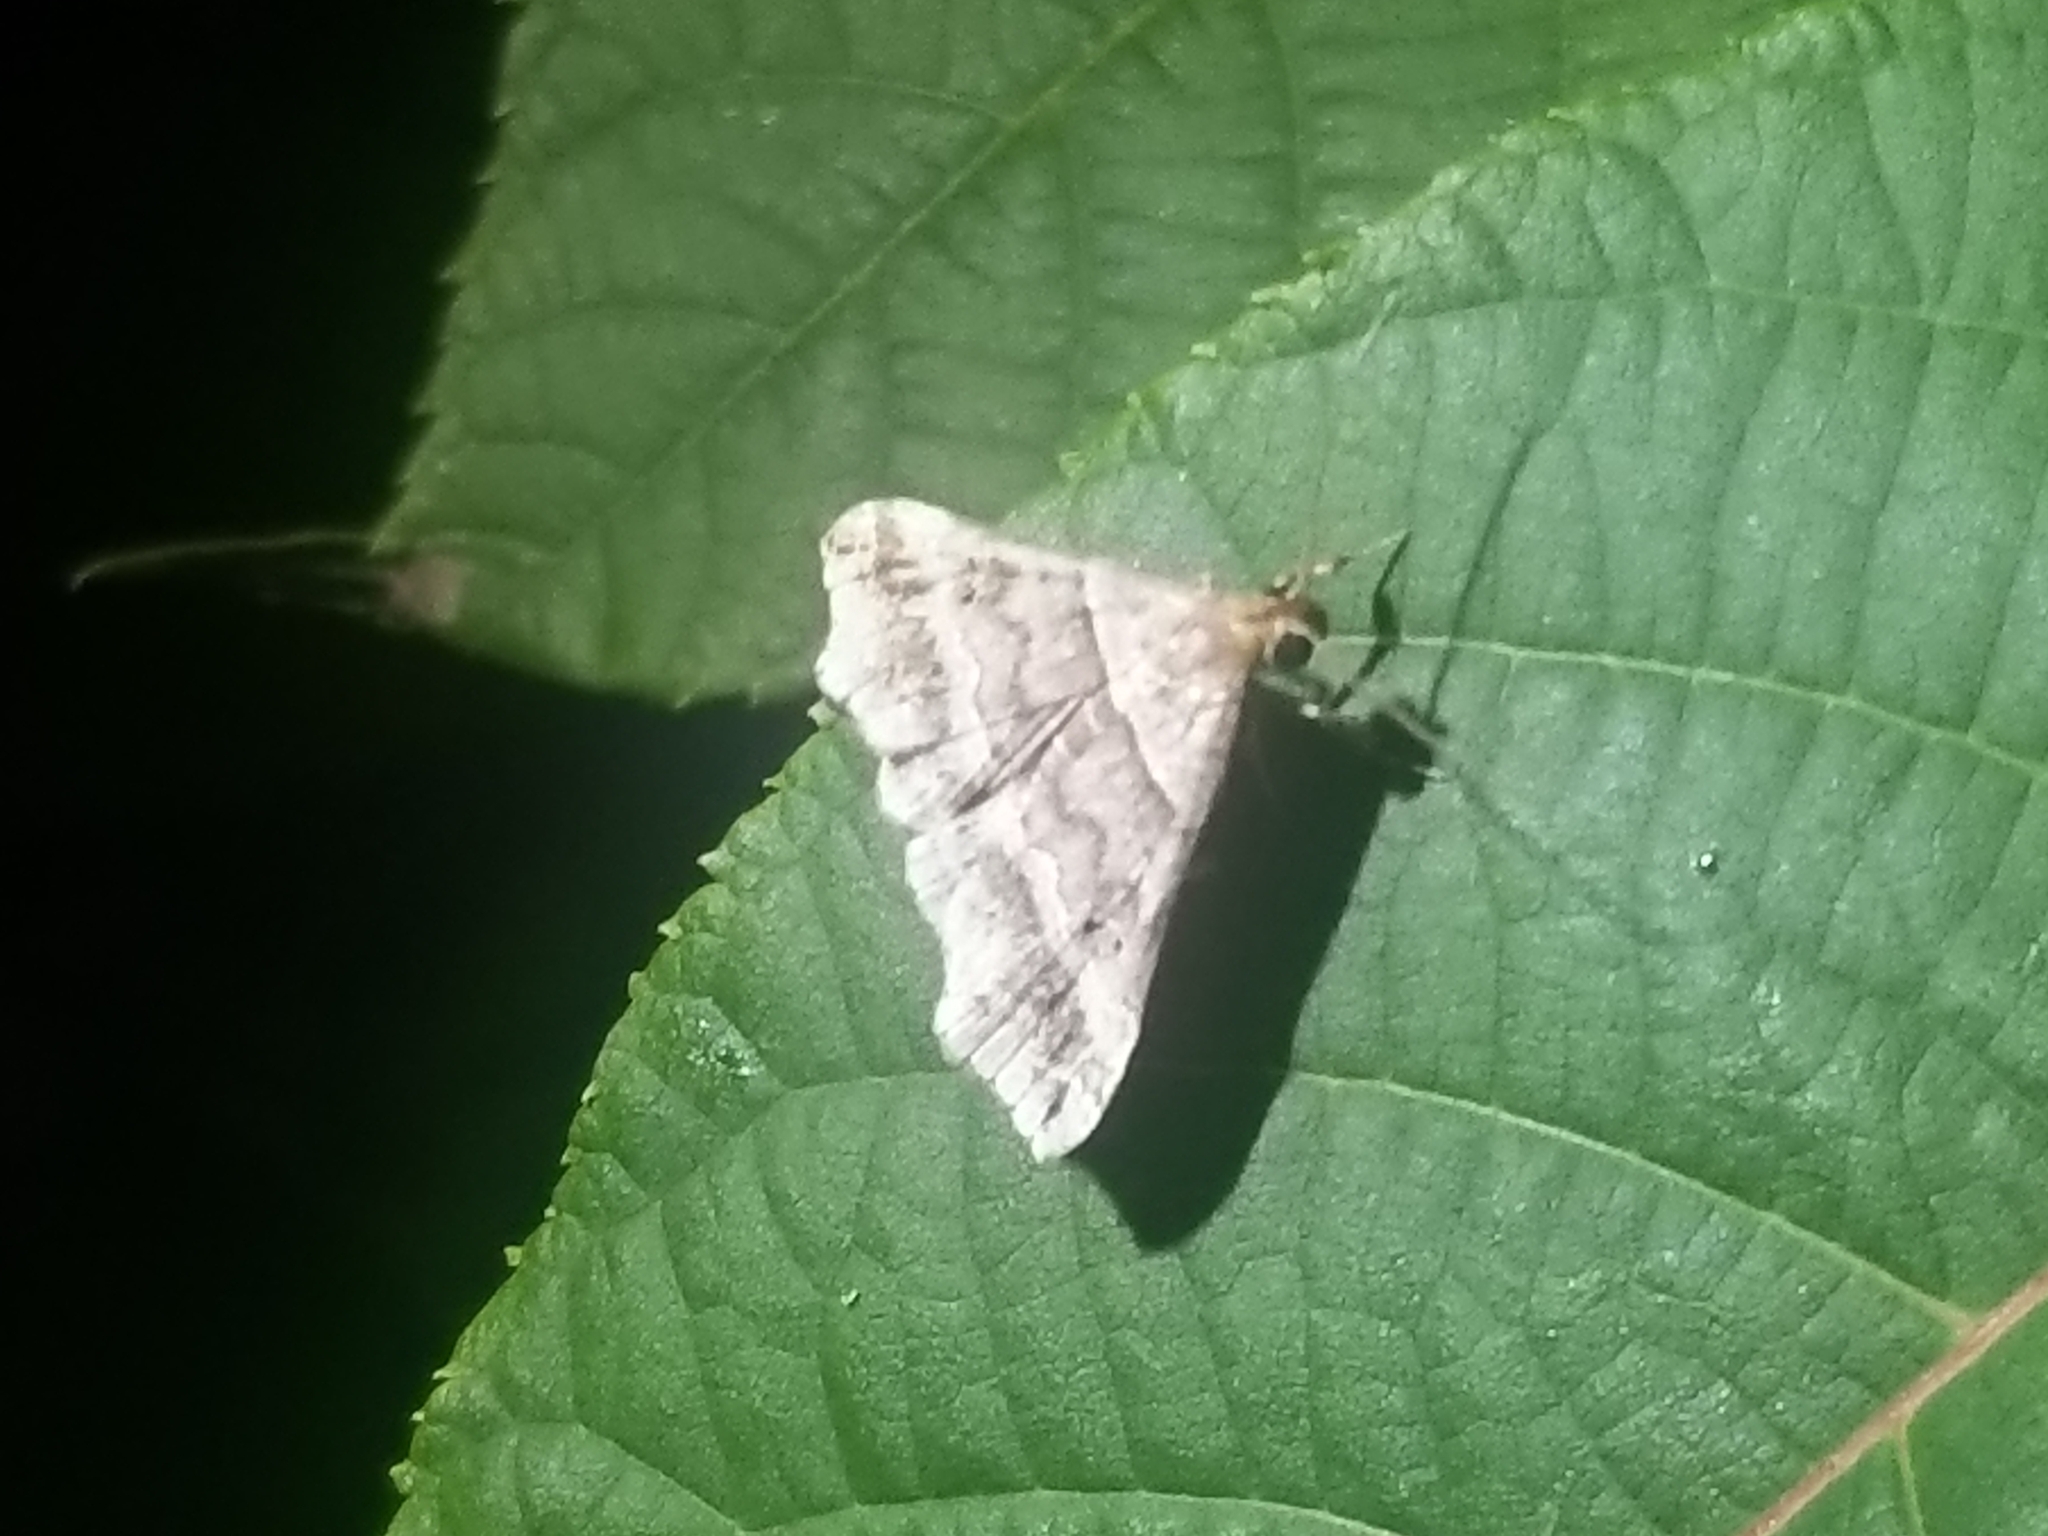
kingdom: Animalia
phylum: Arthropoda
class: Insecta
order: Lepidoptera
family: Erebidae
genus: Phaeolita
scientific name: Phaeolita pyramusalis
